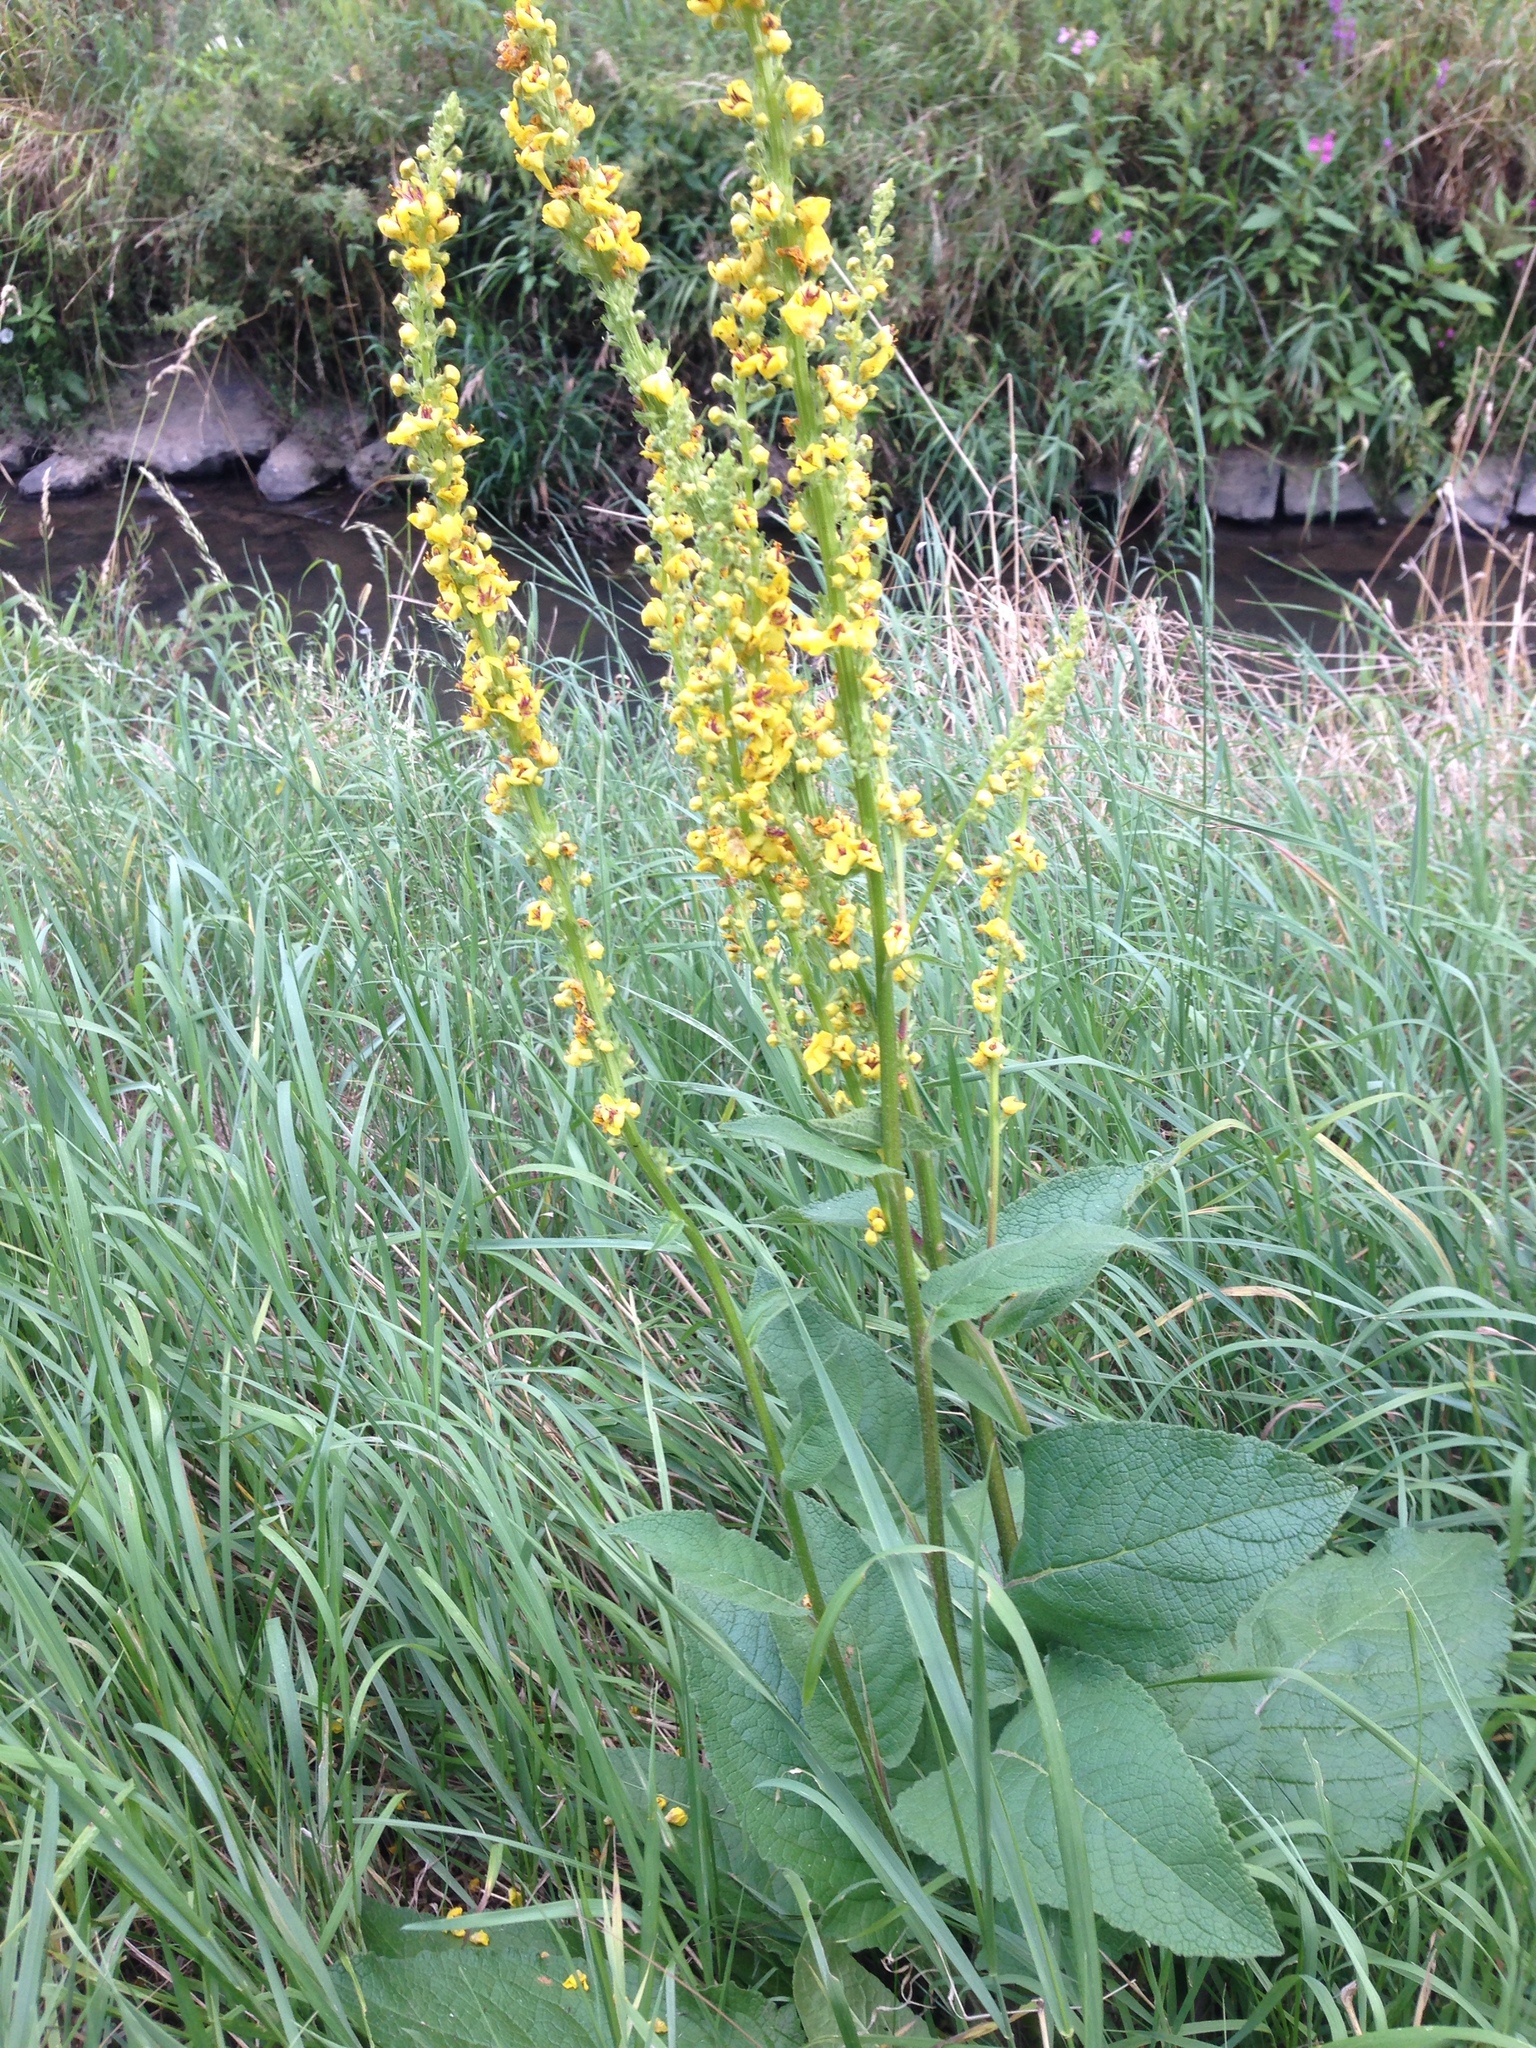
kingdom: Plantae
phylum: Tracheophyta
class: Magnoliopsida
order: Lamiales
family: Scrophulariaceae
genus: Verbascum
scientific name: Verbascum nigrum
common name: Dark mullein
